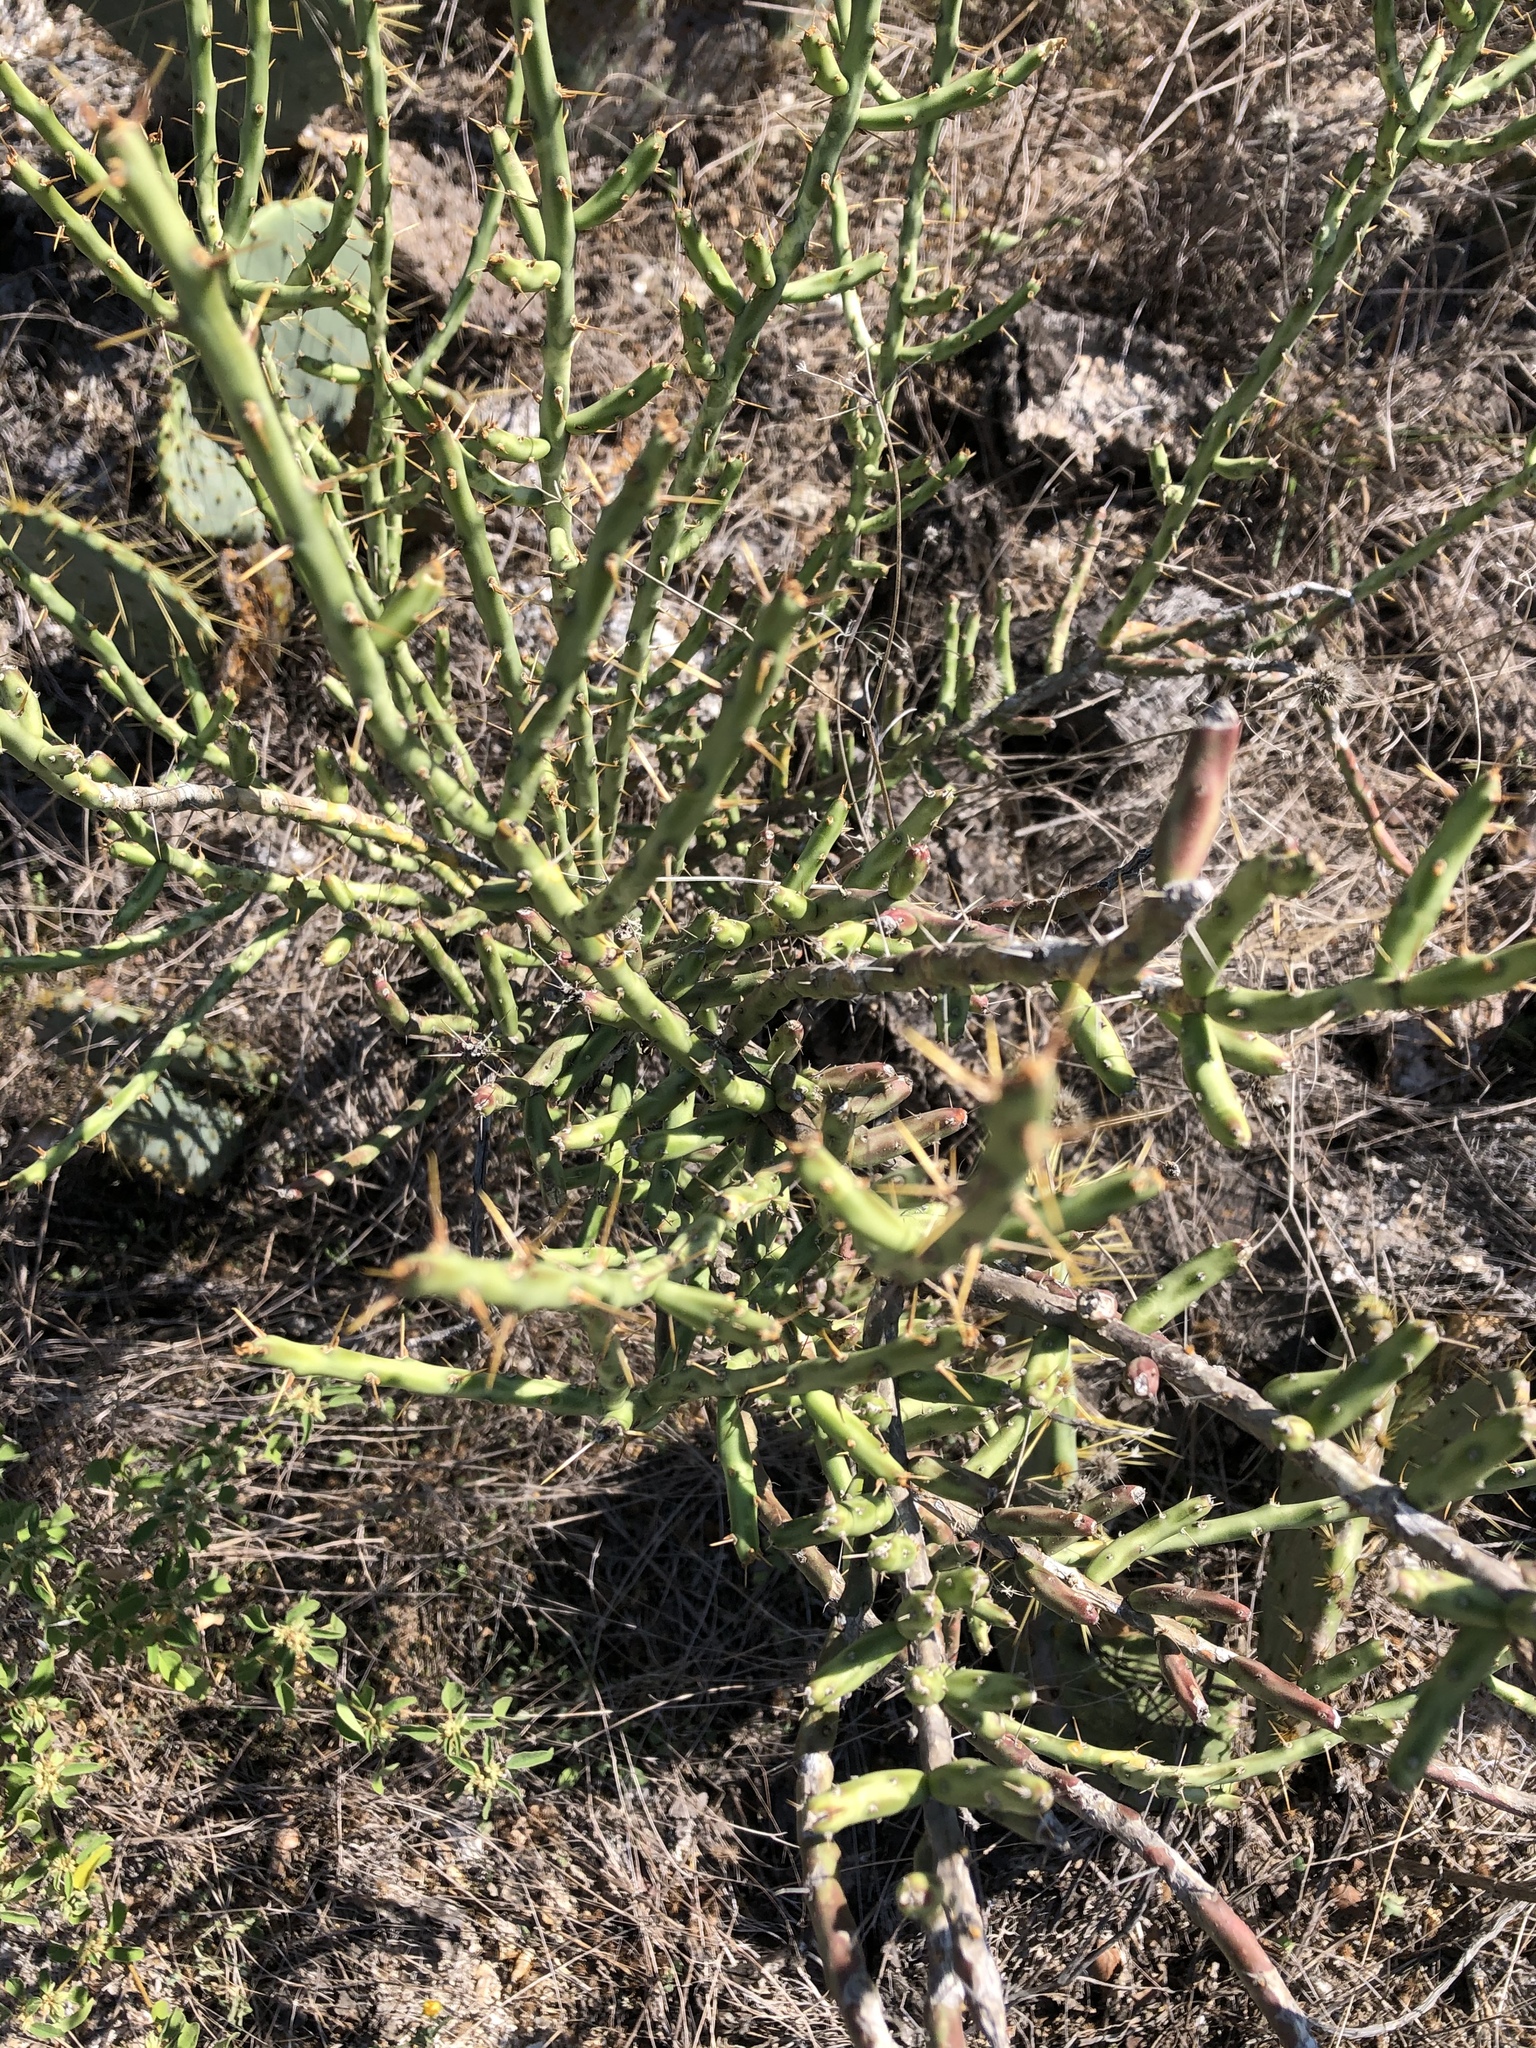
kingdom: Plantae
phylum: Tracheophyta
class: Magnoliopsida
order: Caryophyllales
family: Cactaceae
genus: Cylindropuntia
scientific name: Cylindropuntia leptocaulis
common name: Christmas cactus
